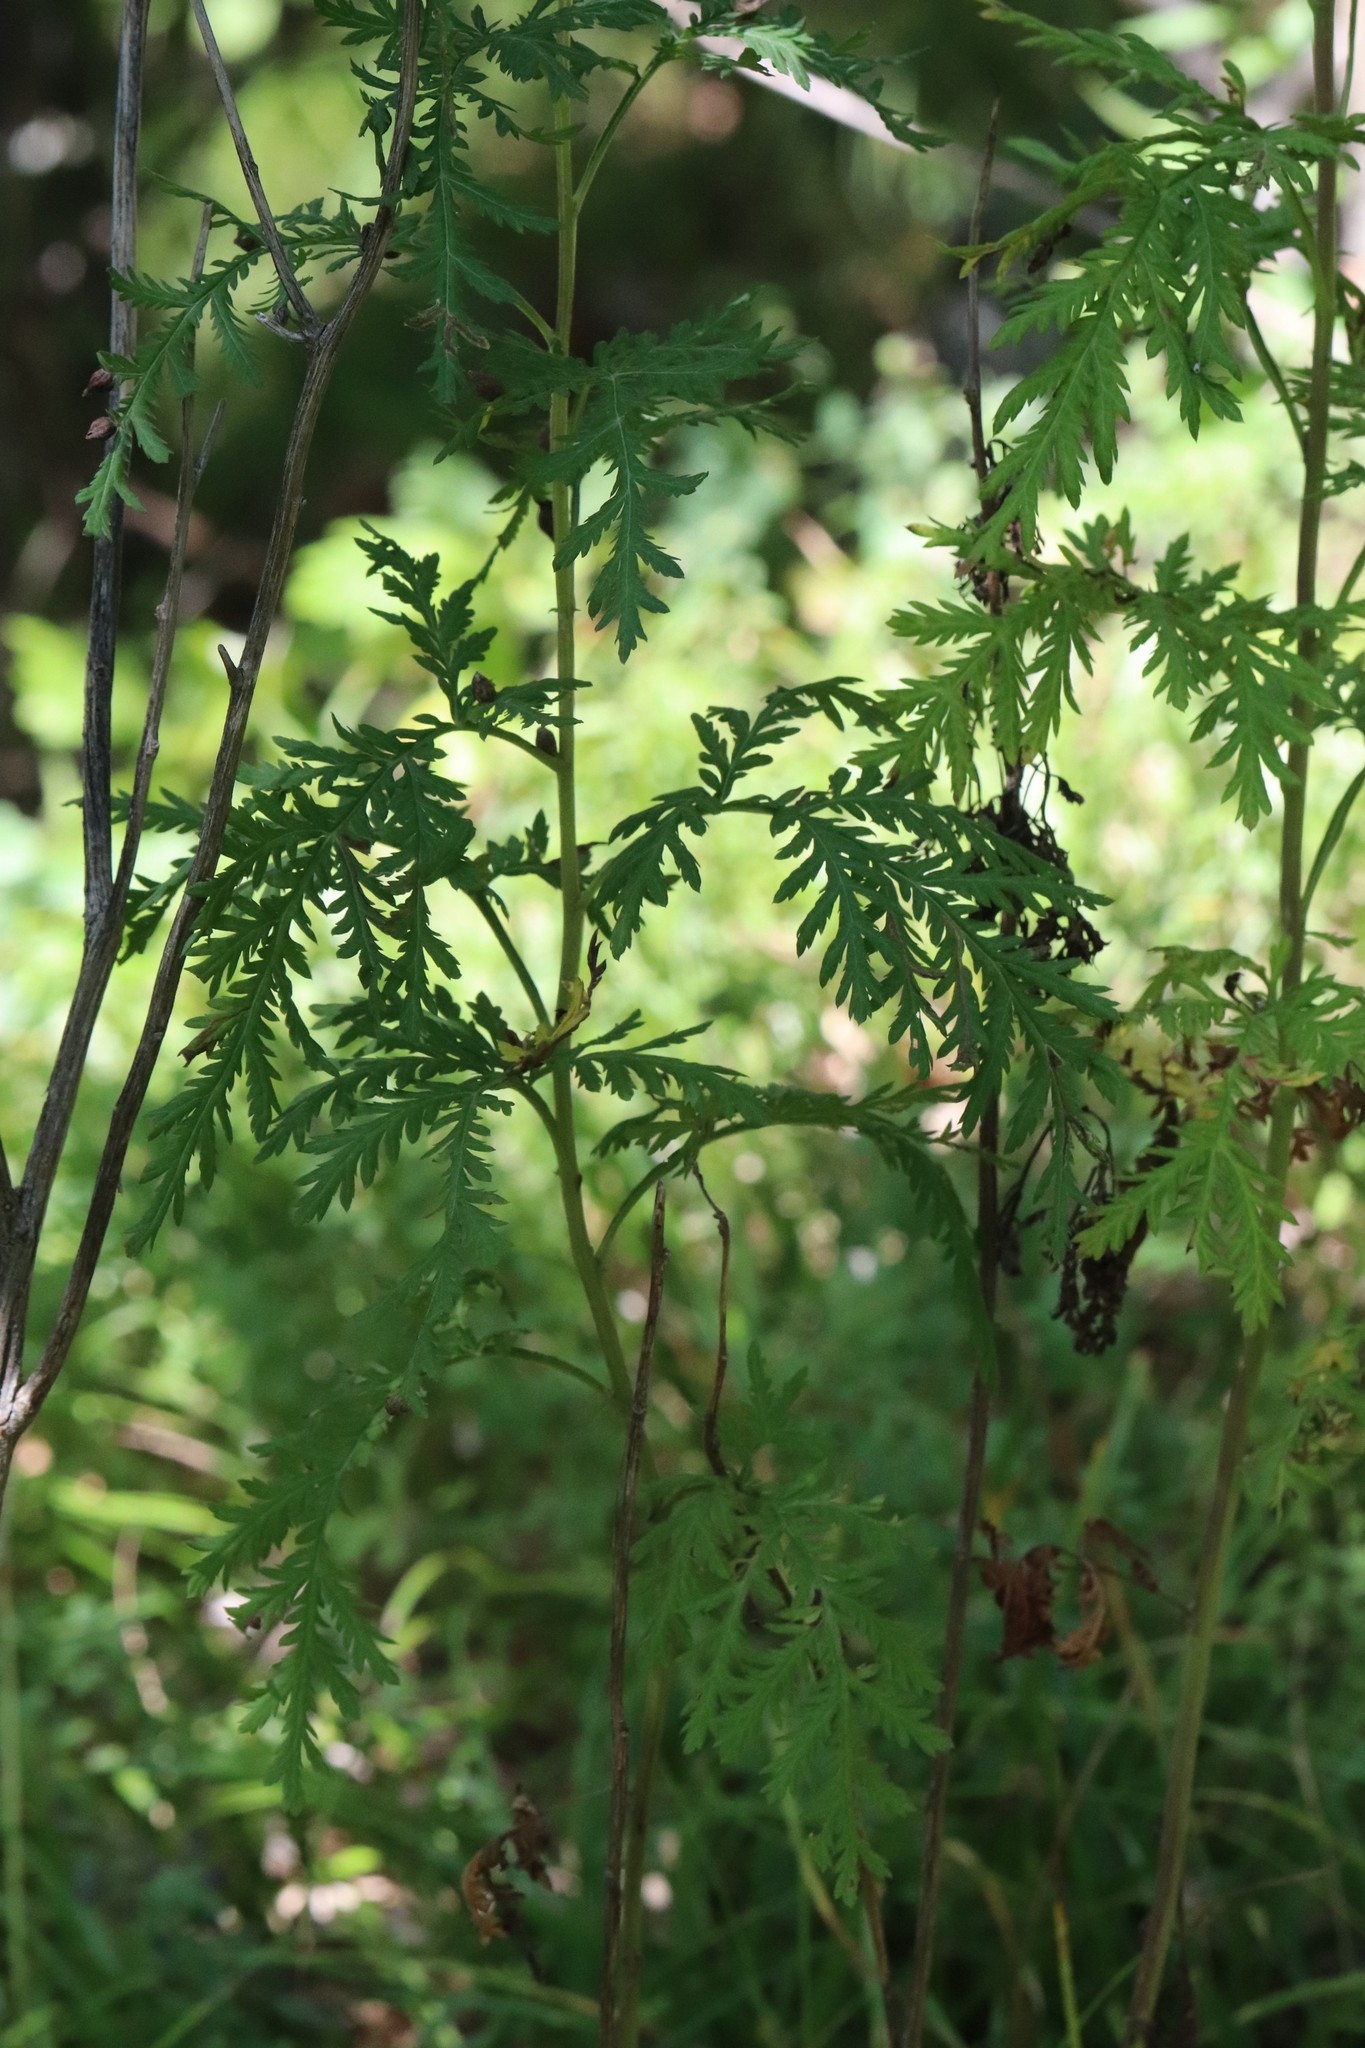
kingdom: Plantae
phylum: Tracheophyta
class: Magnoliopsida
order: Asterales
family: Asteraceae
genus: Artemisia
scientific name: Artemisia gmelinii
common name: Gmelin's wormwood
